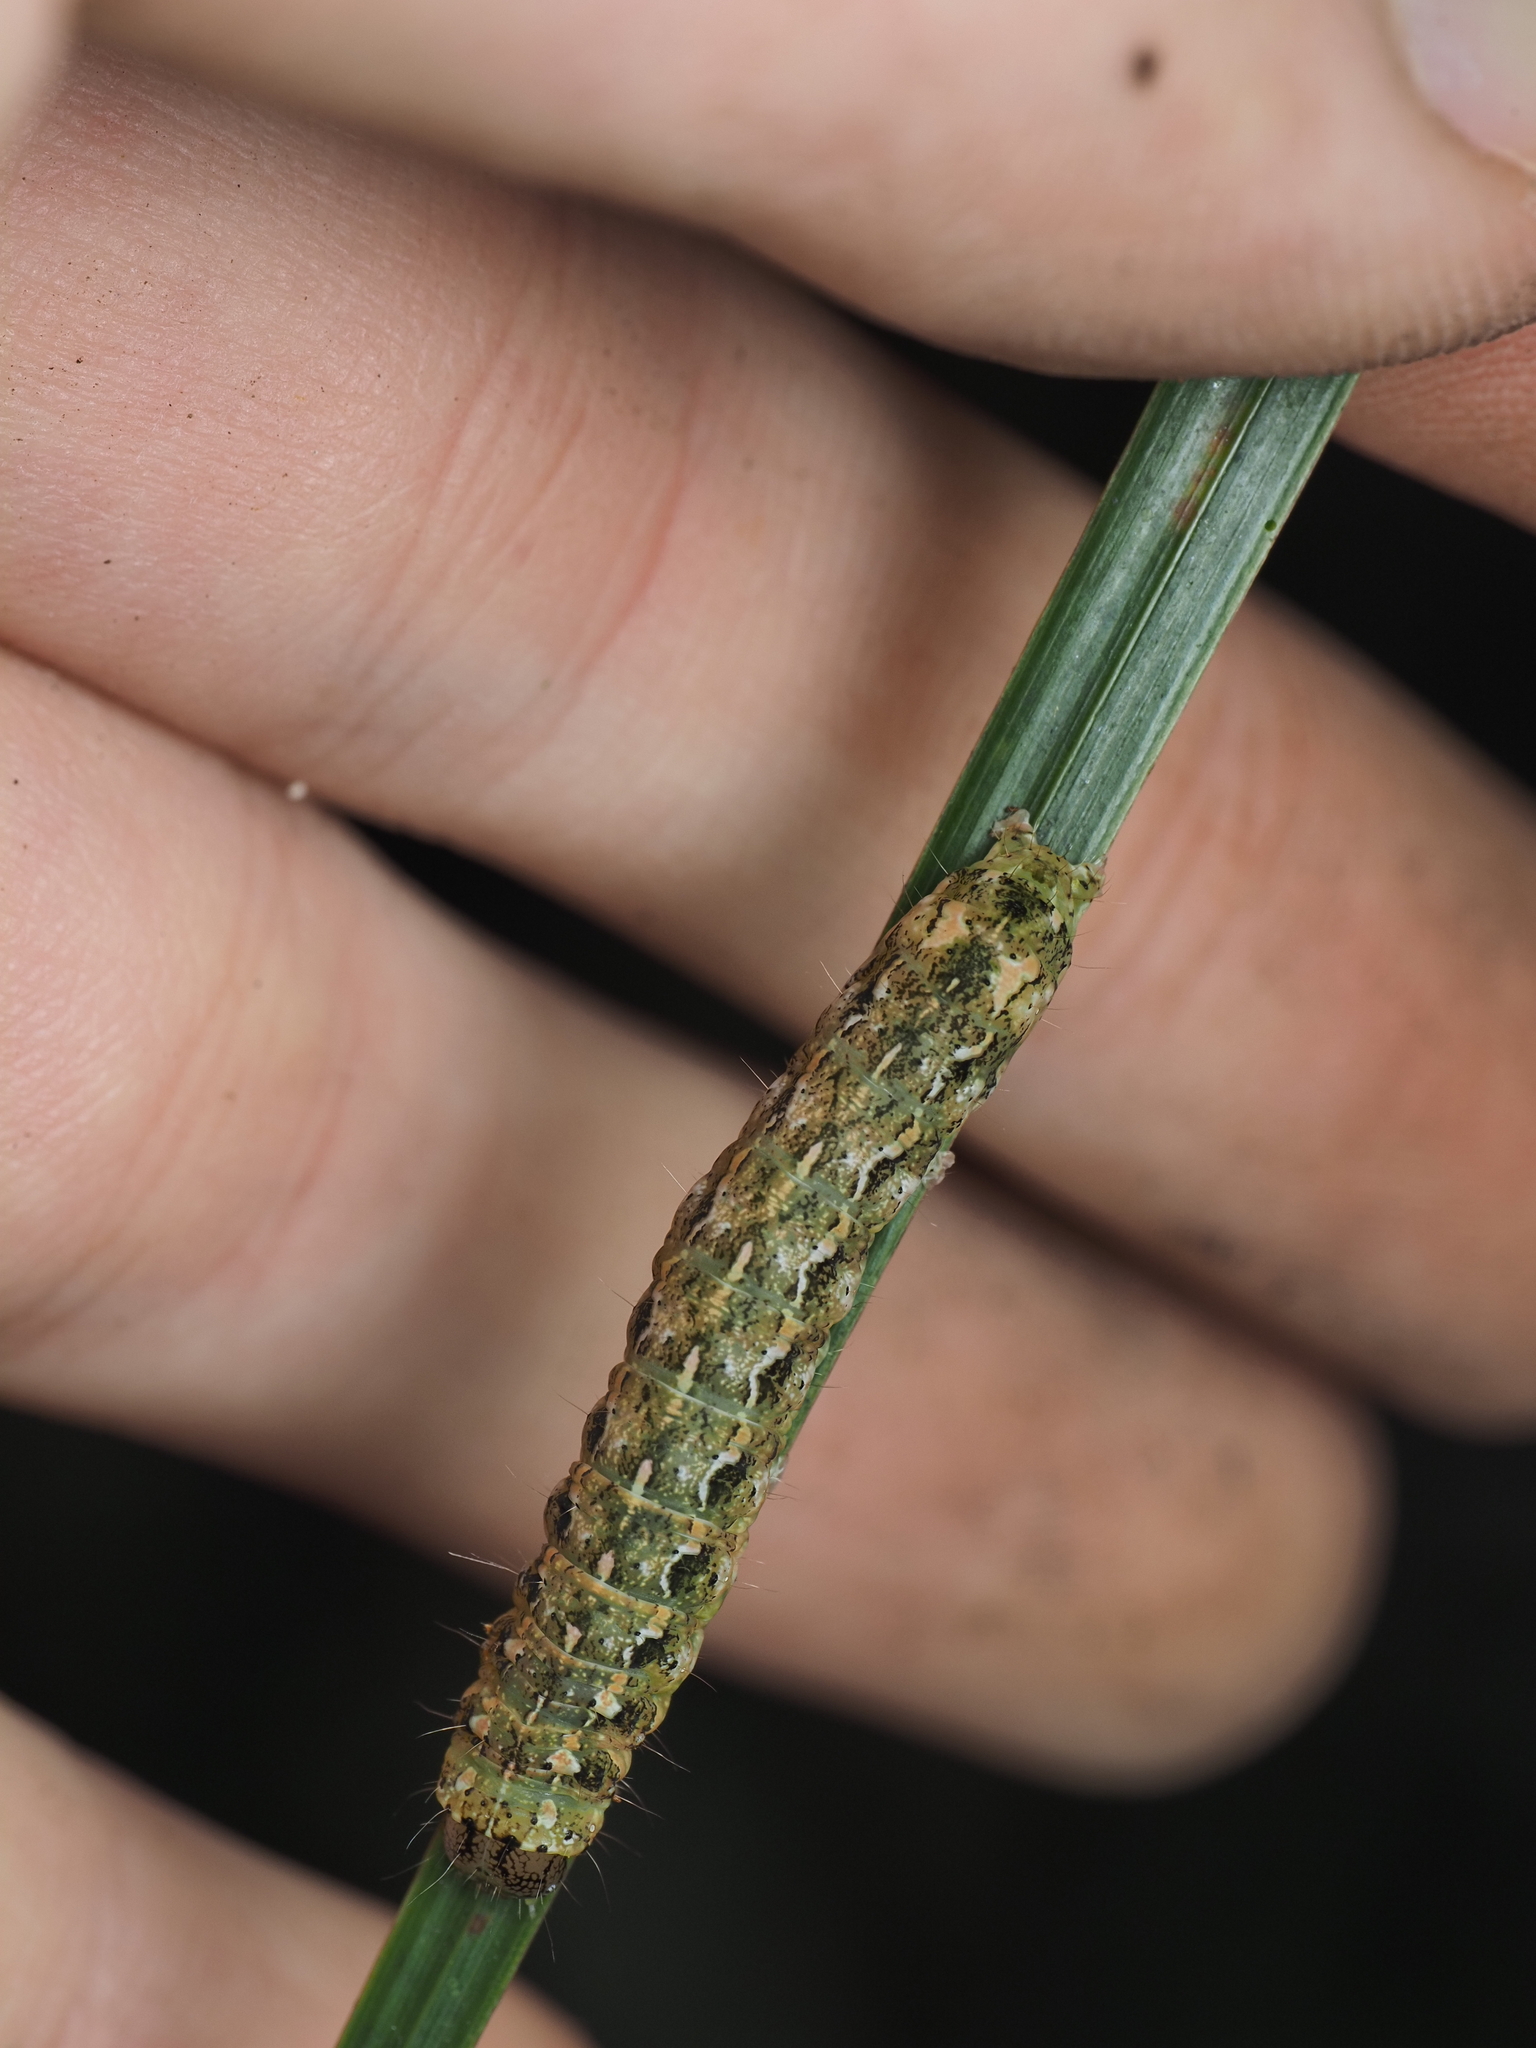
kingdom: Animalia
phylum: Arthropoda
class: Insecta
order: Lepidoptera
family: Noctuidae
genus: Feredayia
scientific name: Feredayia grammosa
